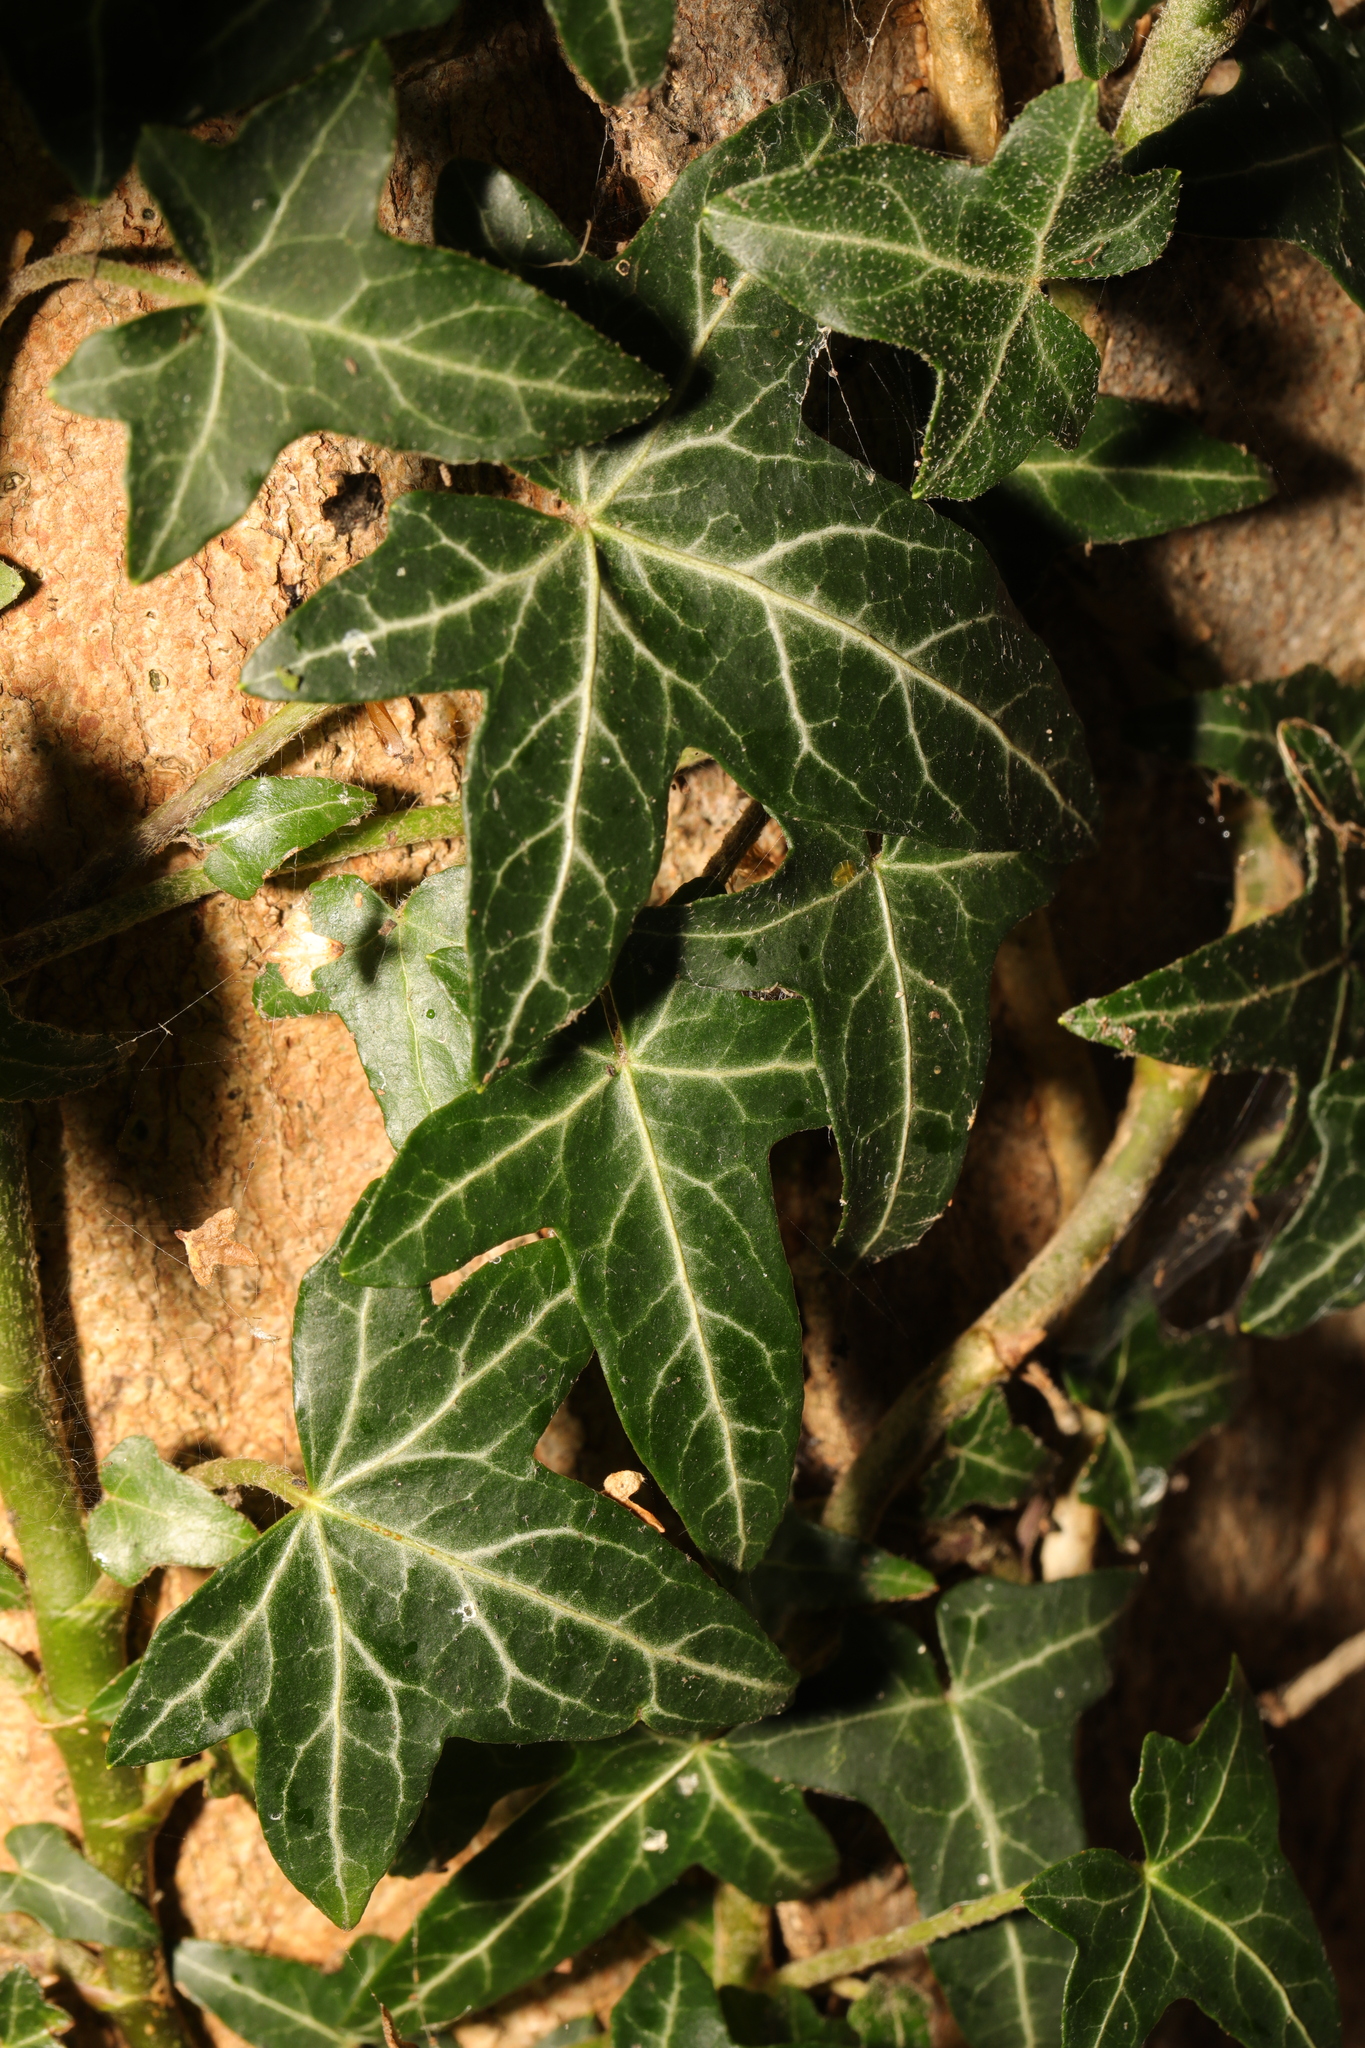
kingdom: Plantae
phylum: Tracheophyta
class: Magnoliopsida
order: Apiales
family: Araliaceae
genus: Hedera
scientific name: Hedera helix
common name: Ivy
